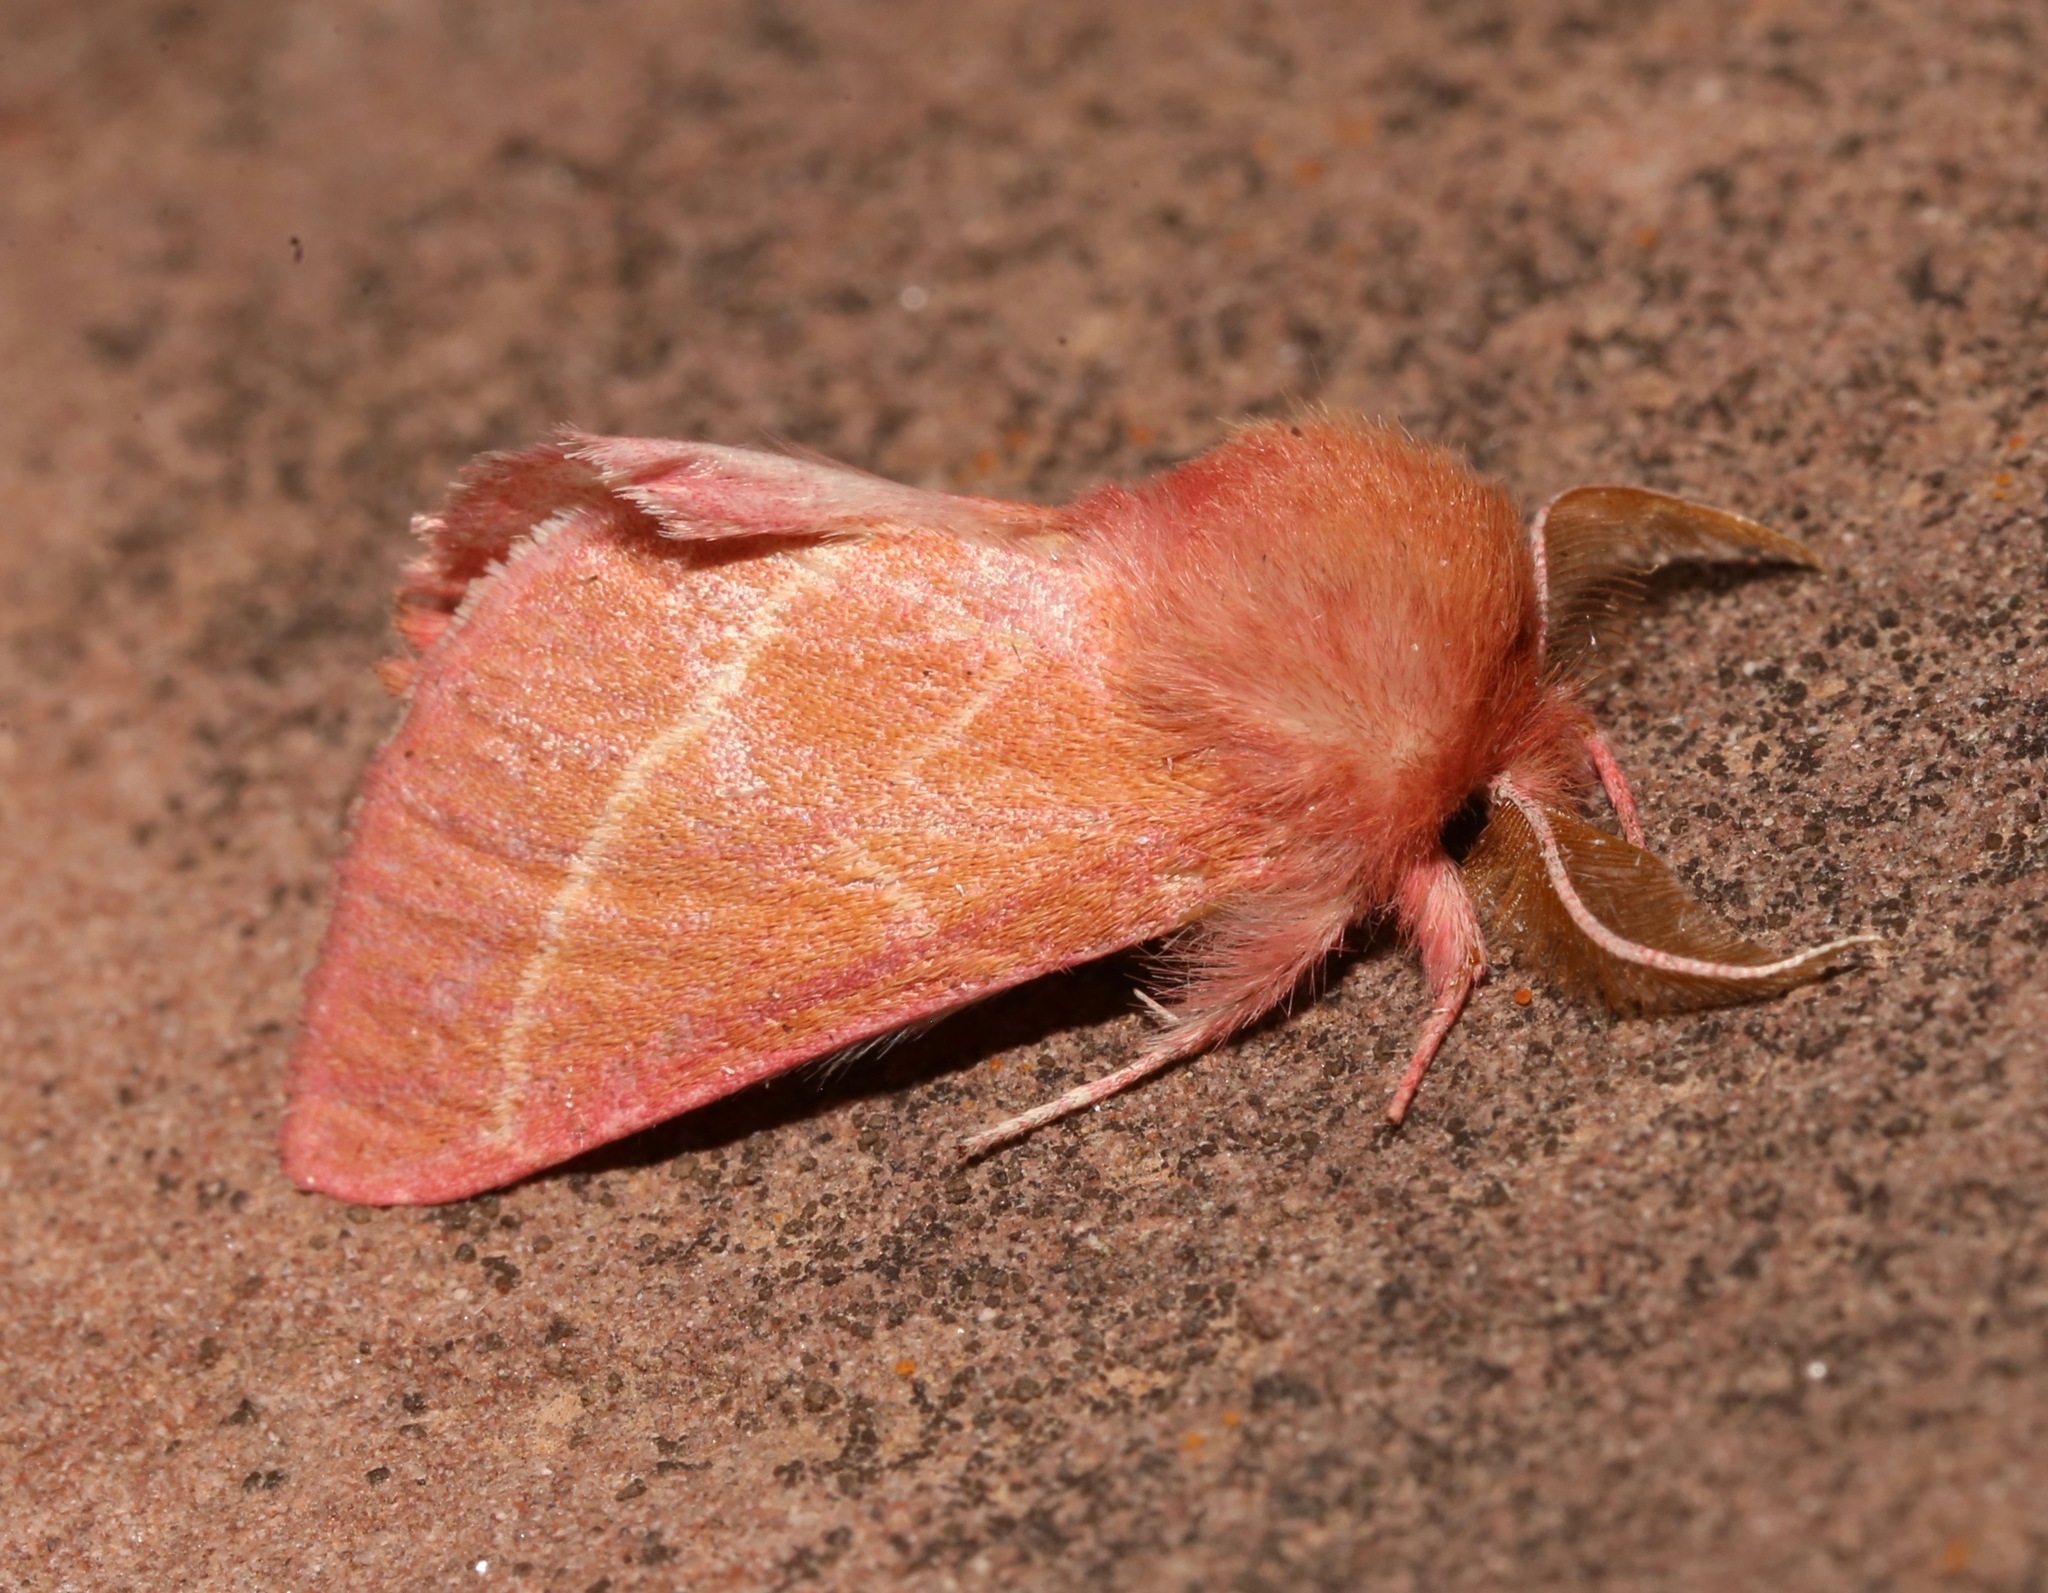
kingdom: Animalia
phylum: Arthropoda
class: Insecta
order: Lepidoptera
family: Notodontidae
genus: Hyparpax
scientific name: Hyparpax venus
